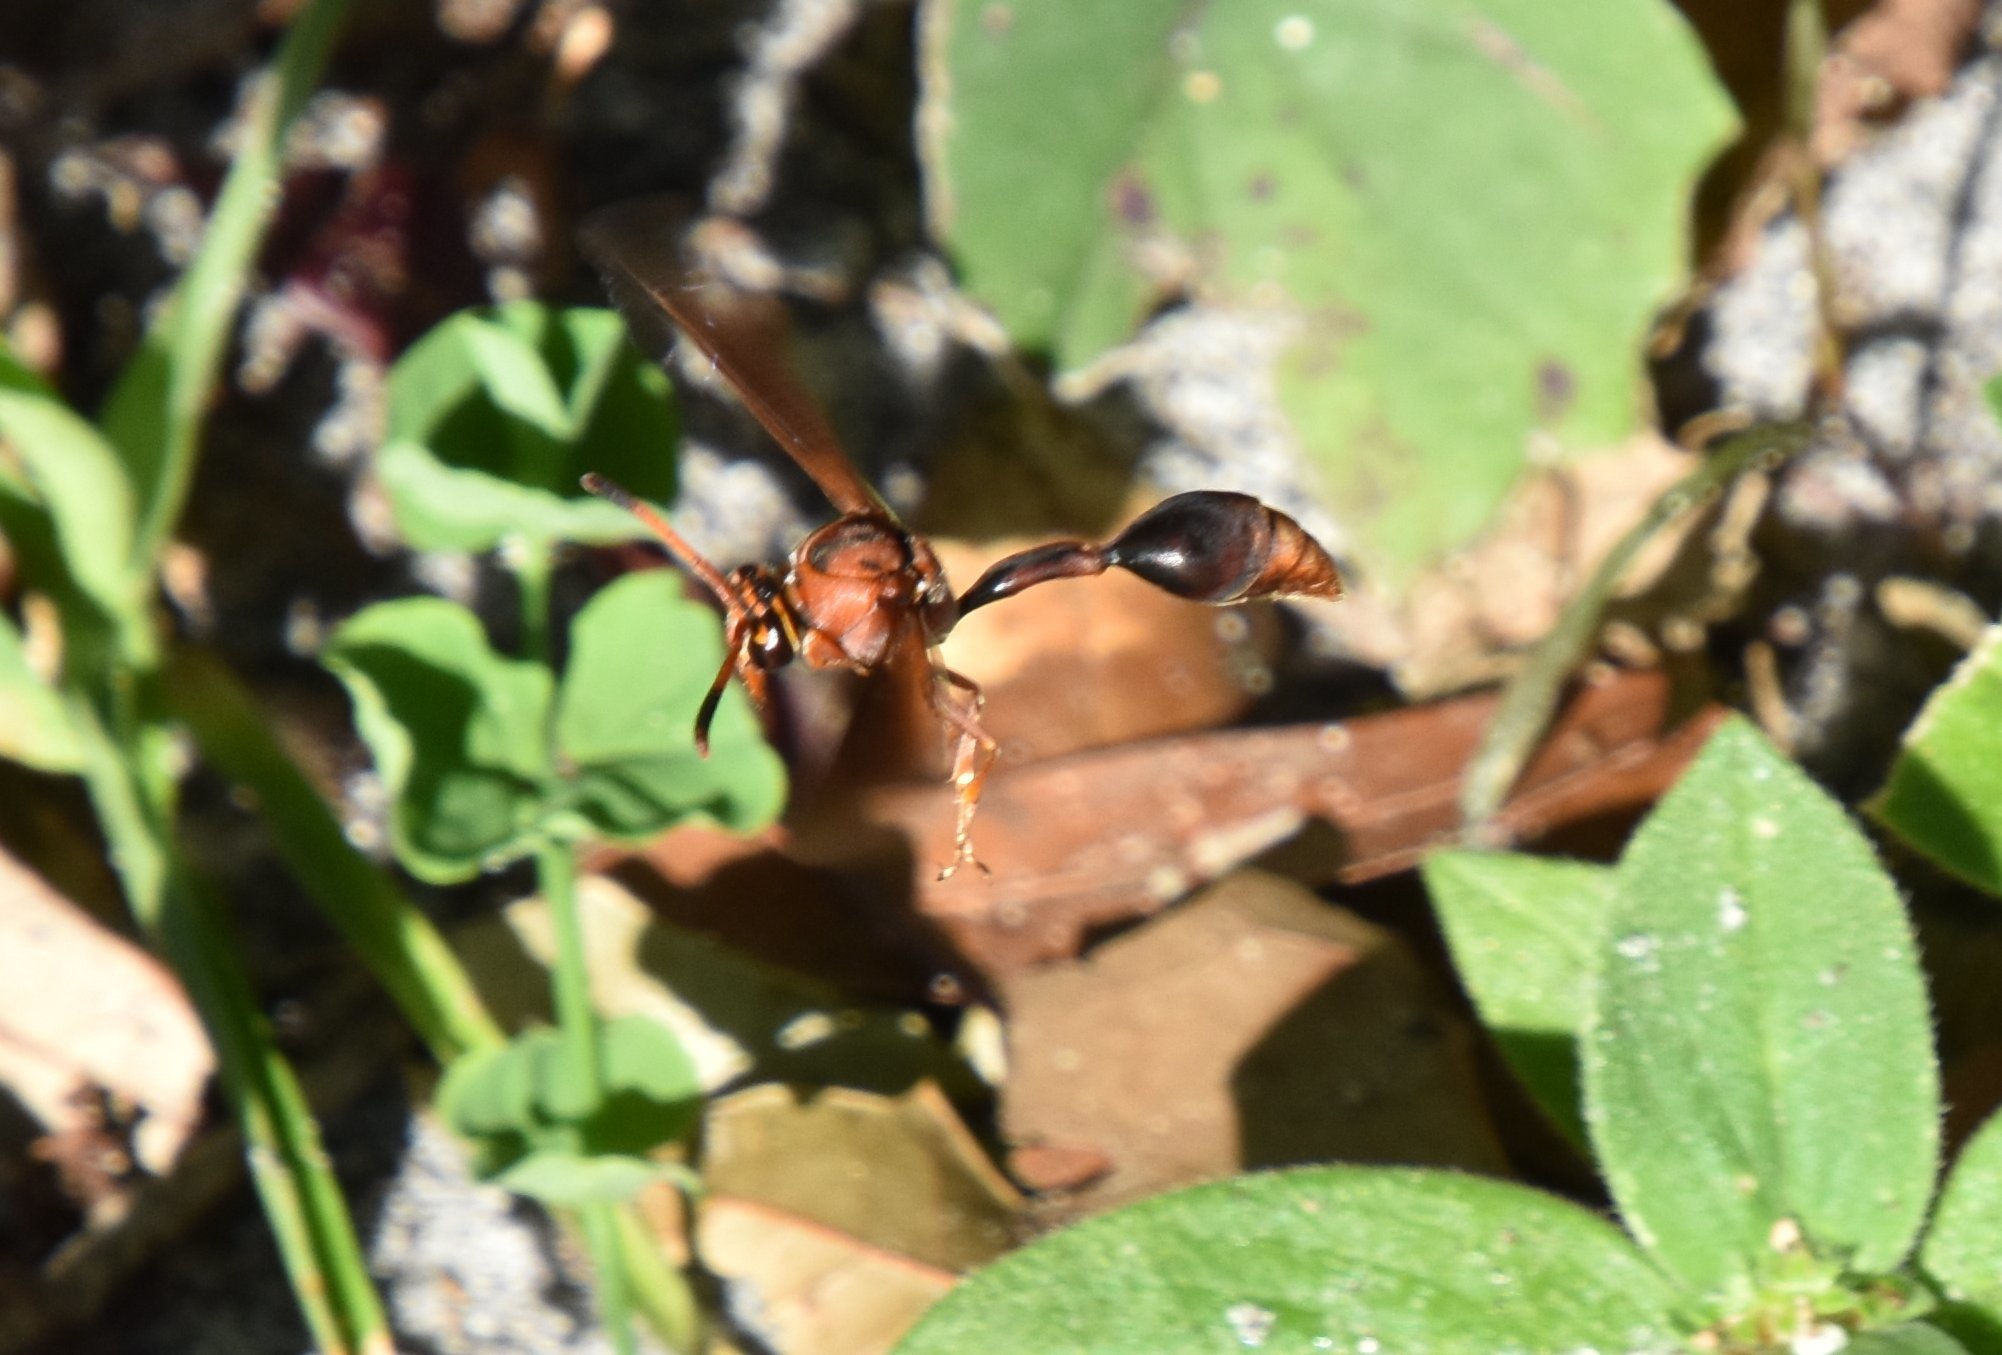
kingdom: Animalia
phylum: Arthropoda
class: Insecta
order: Hymenoptera
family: Eumenidae
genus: Zeta
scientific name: Zeta argillaceum
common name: Potter wasp
